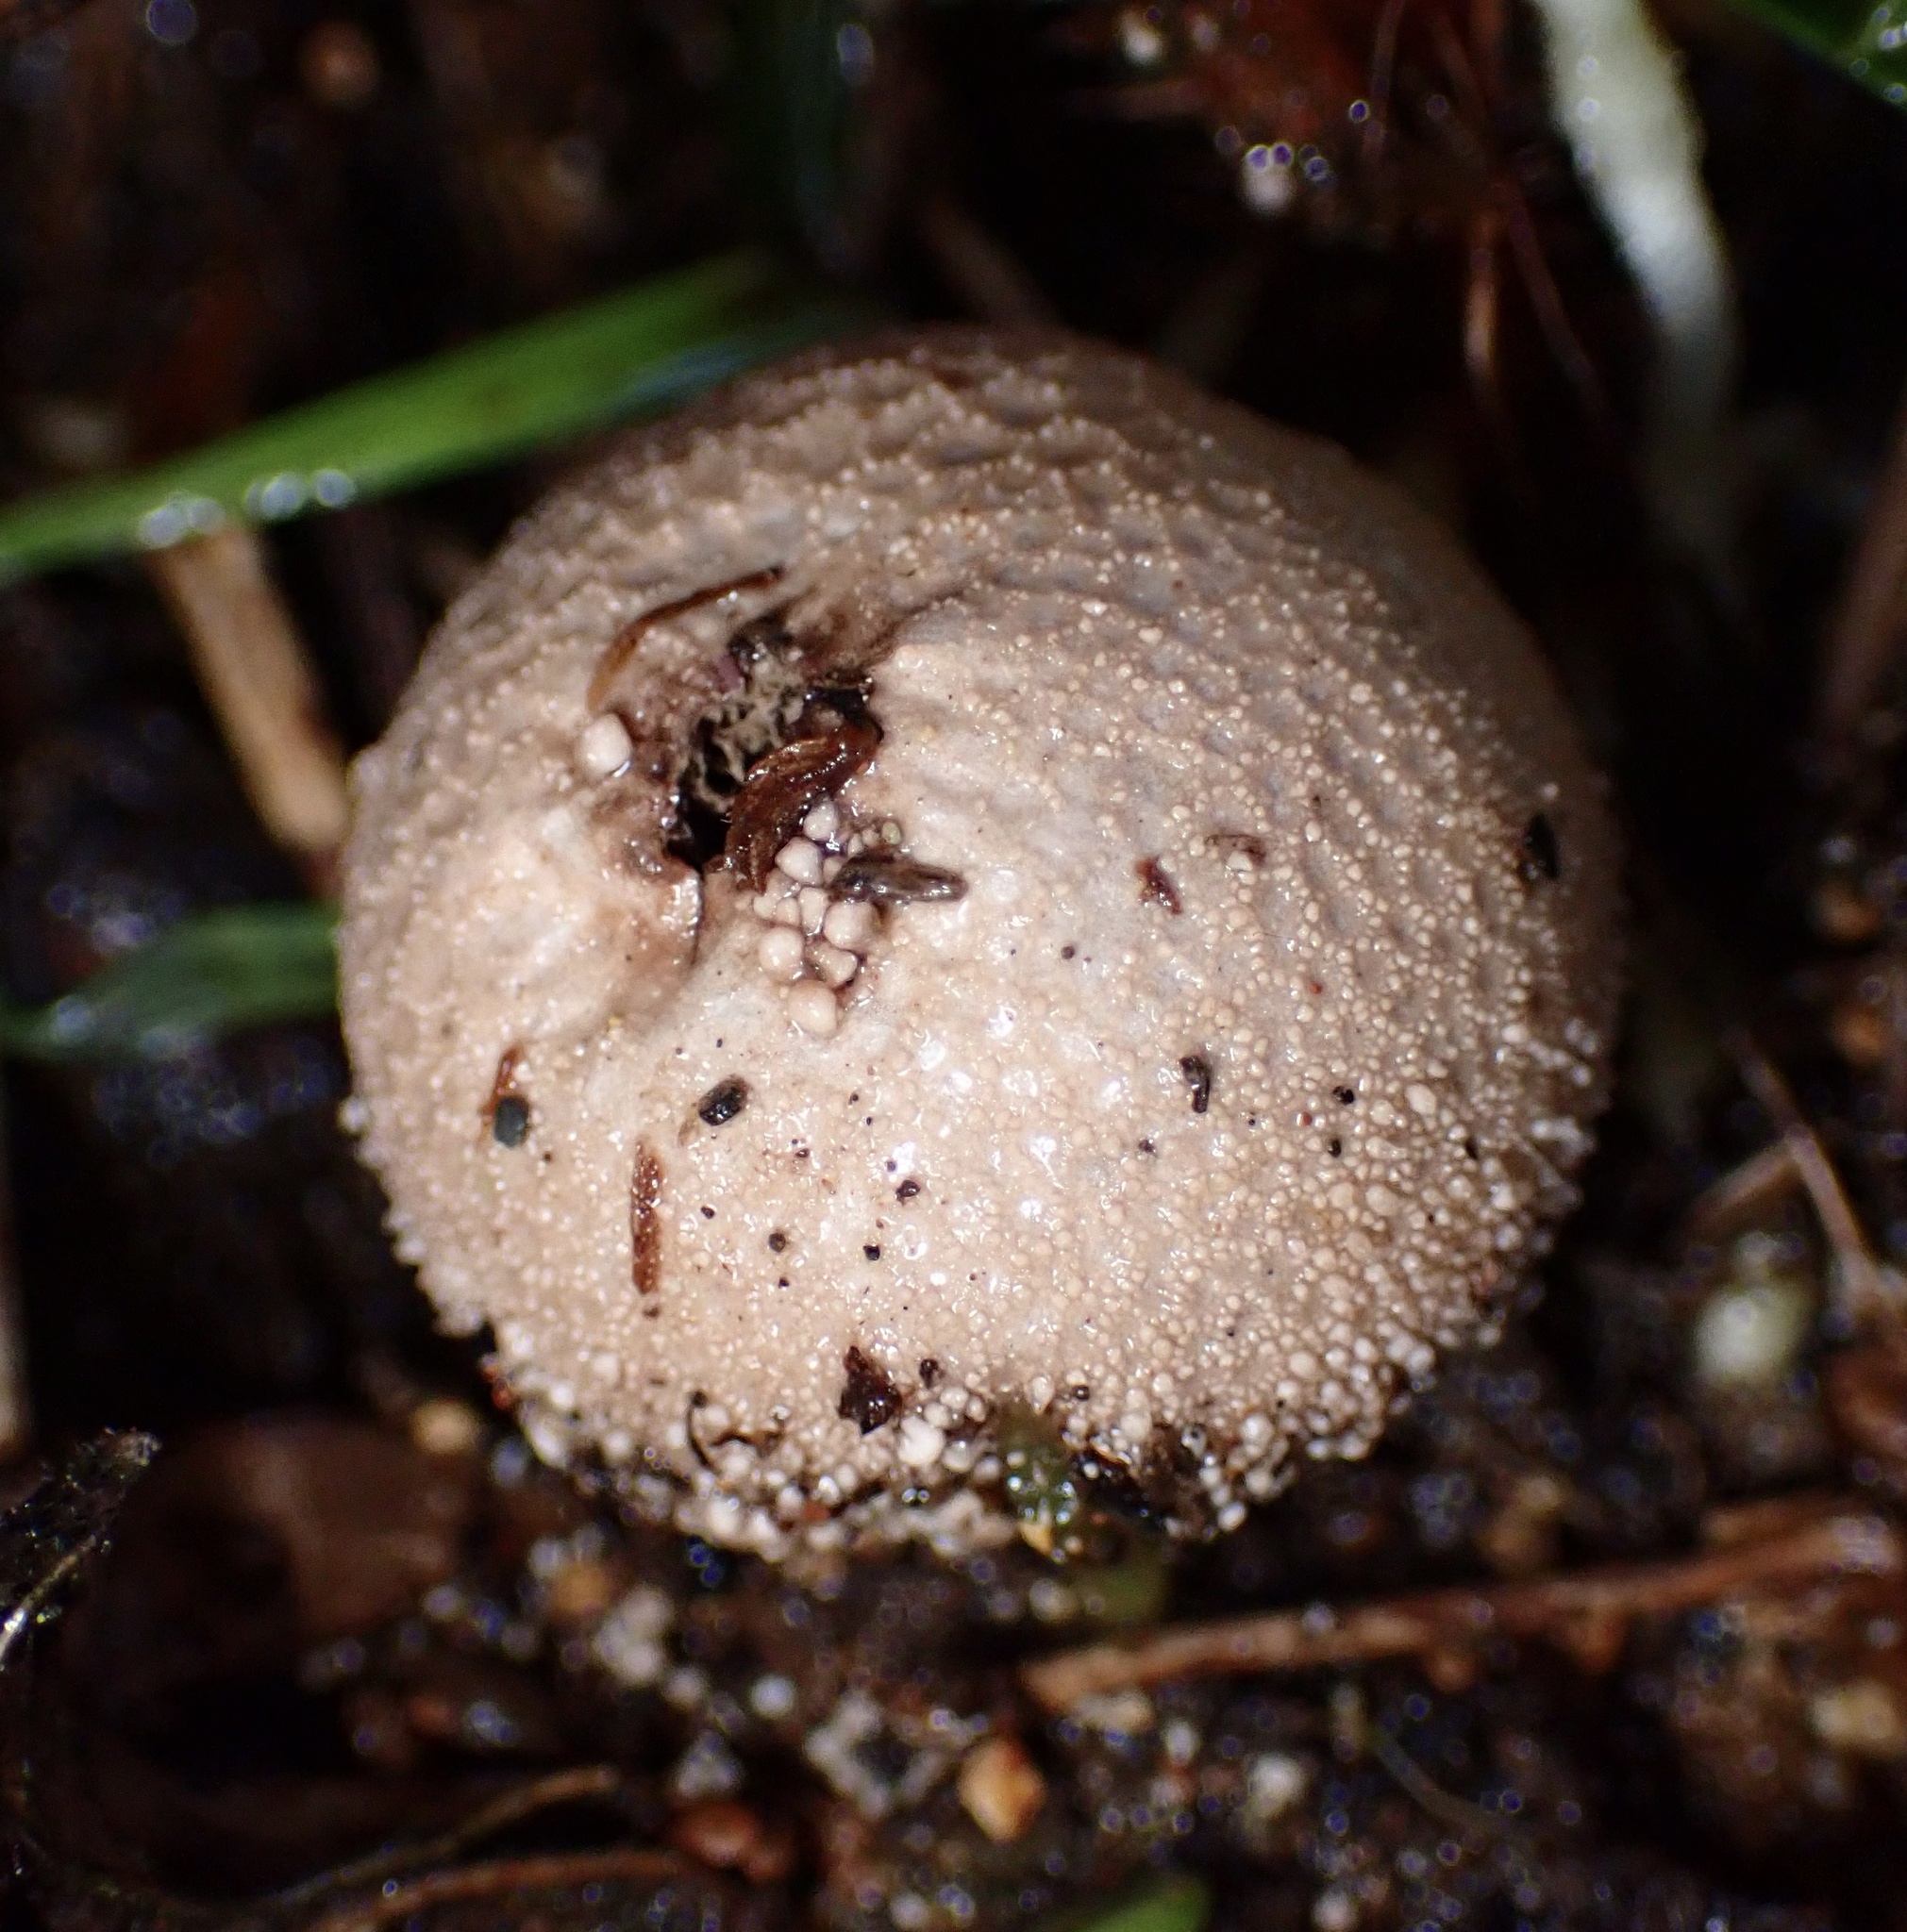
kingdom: Fungi
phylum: Basidiomycota
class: Agaricomycetes
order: Agaricales
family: Lycoperdaceae
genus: Lycoperdon
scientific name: Lycoperdon perlatum
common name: Common puffball
